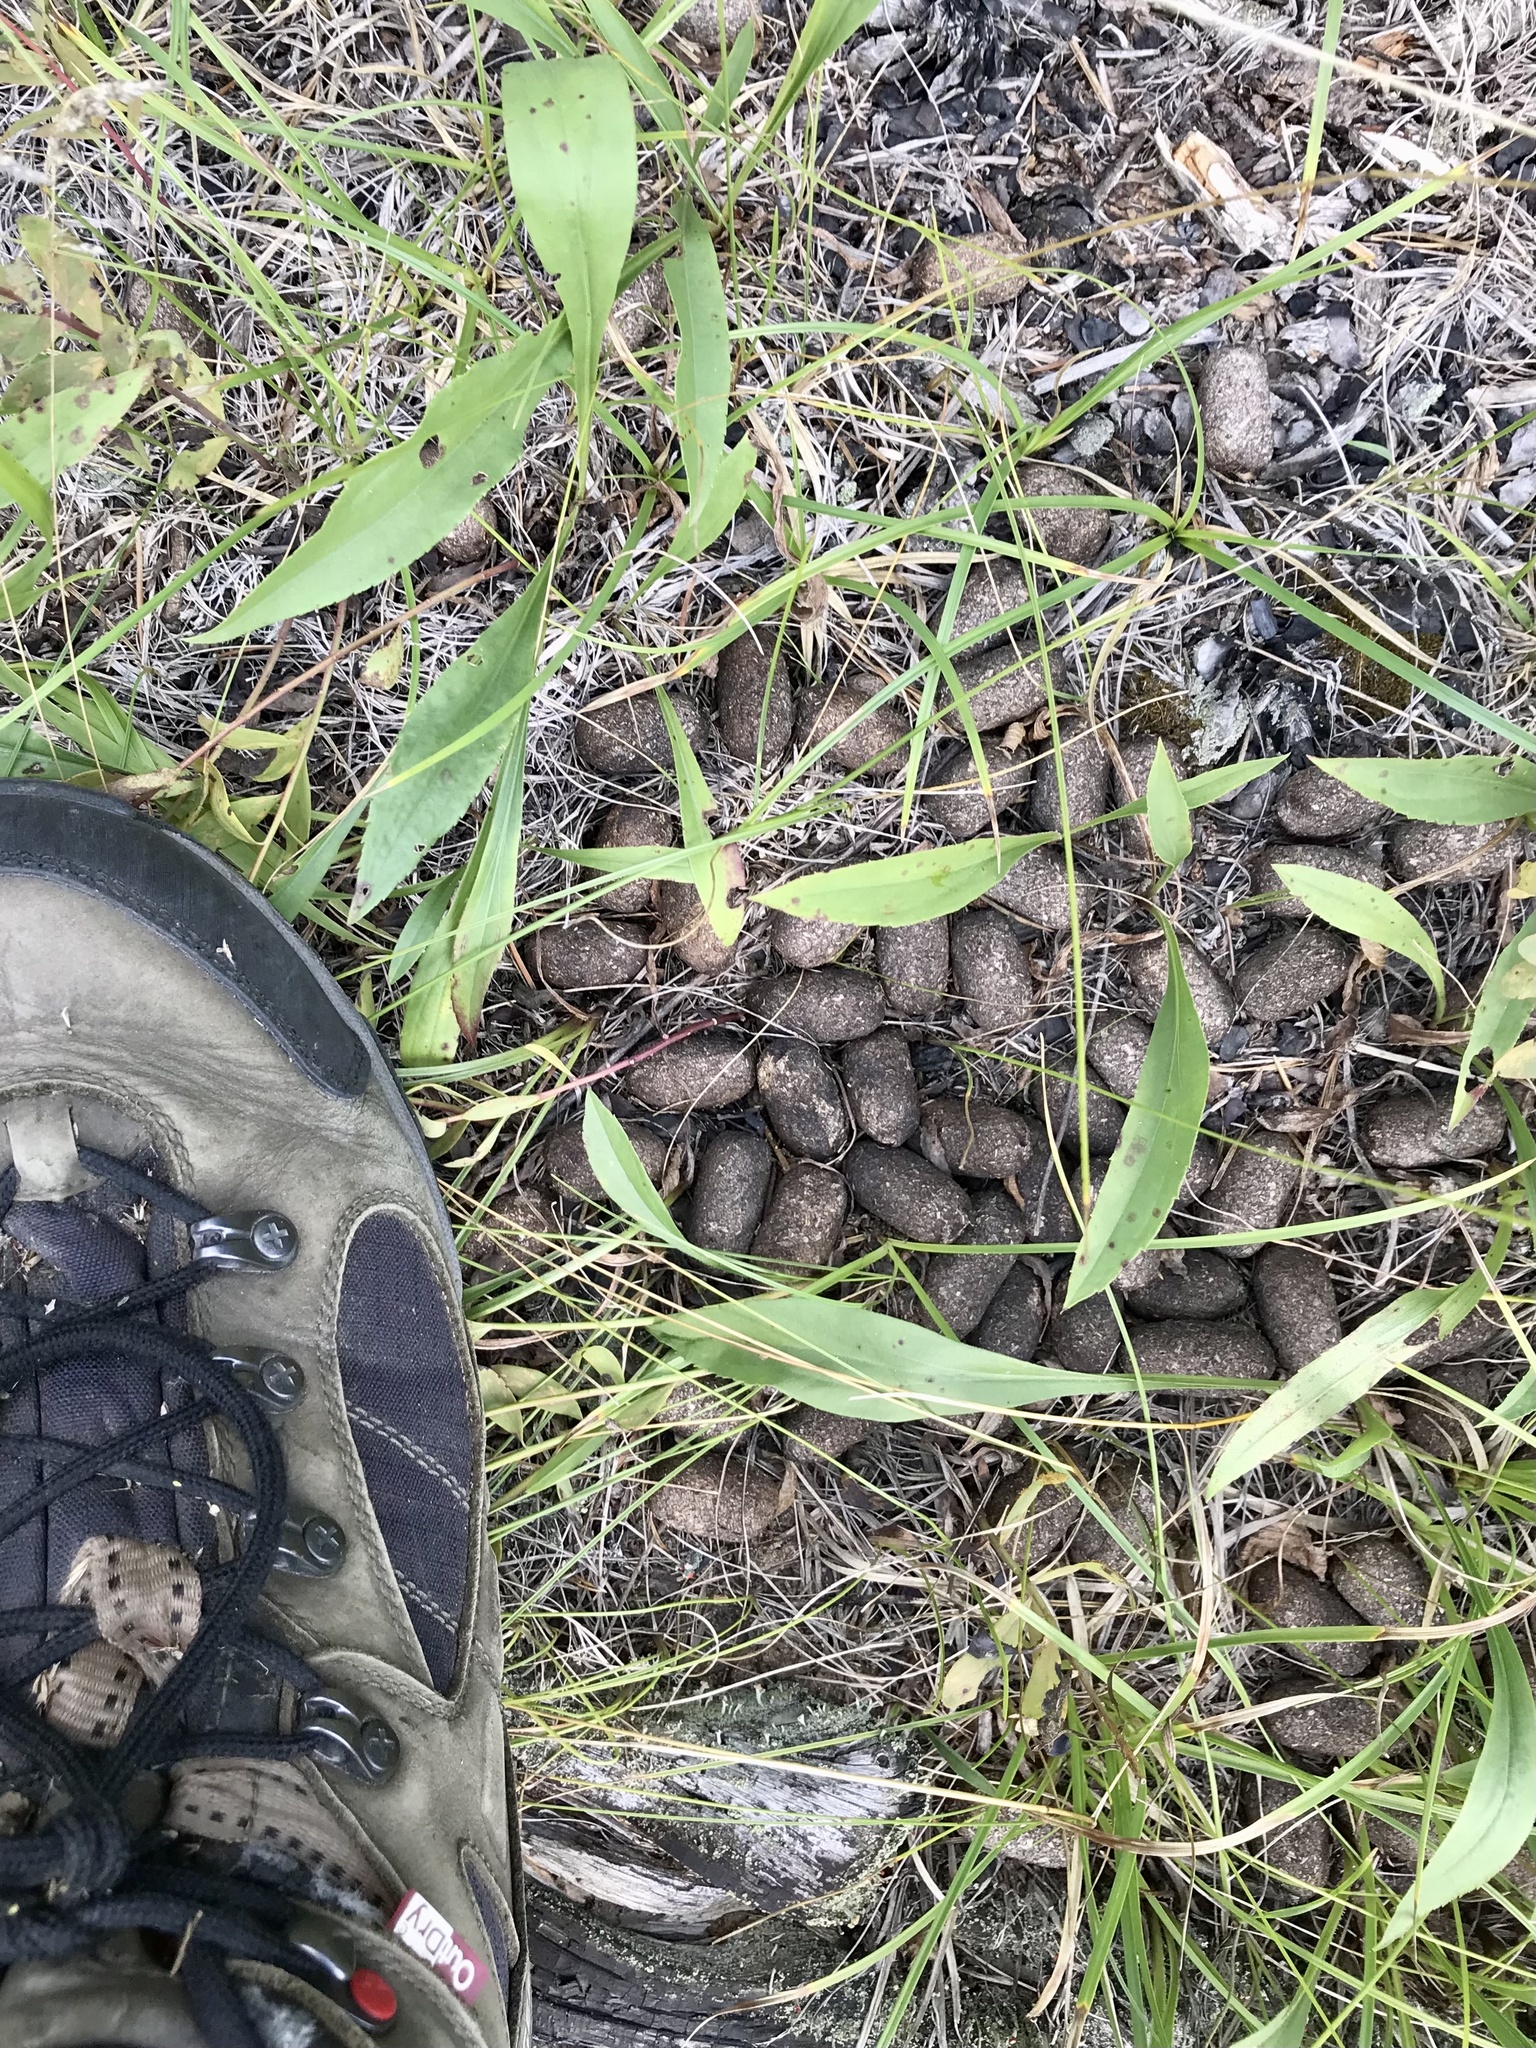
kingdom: Animalia
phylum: Chordata
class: Mammalia
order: Artiodactyla
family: Cervidae
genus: Alces
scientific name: Alces alces
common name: Moose
